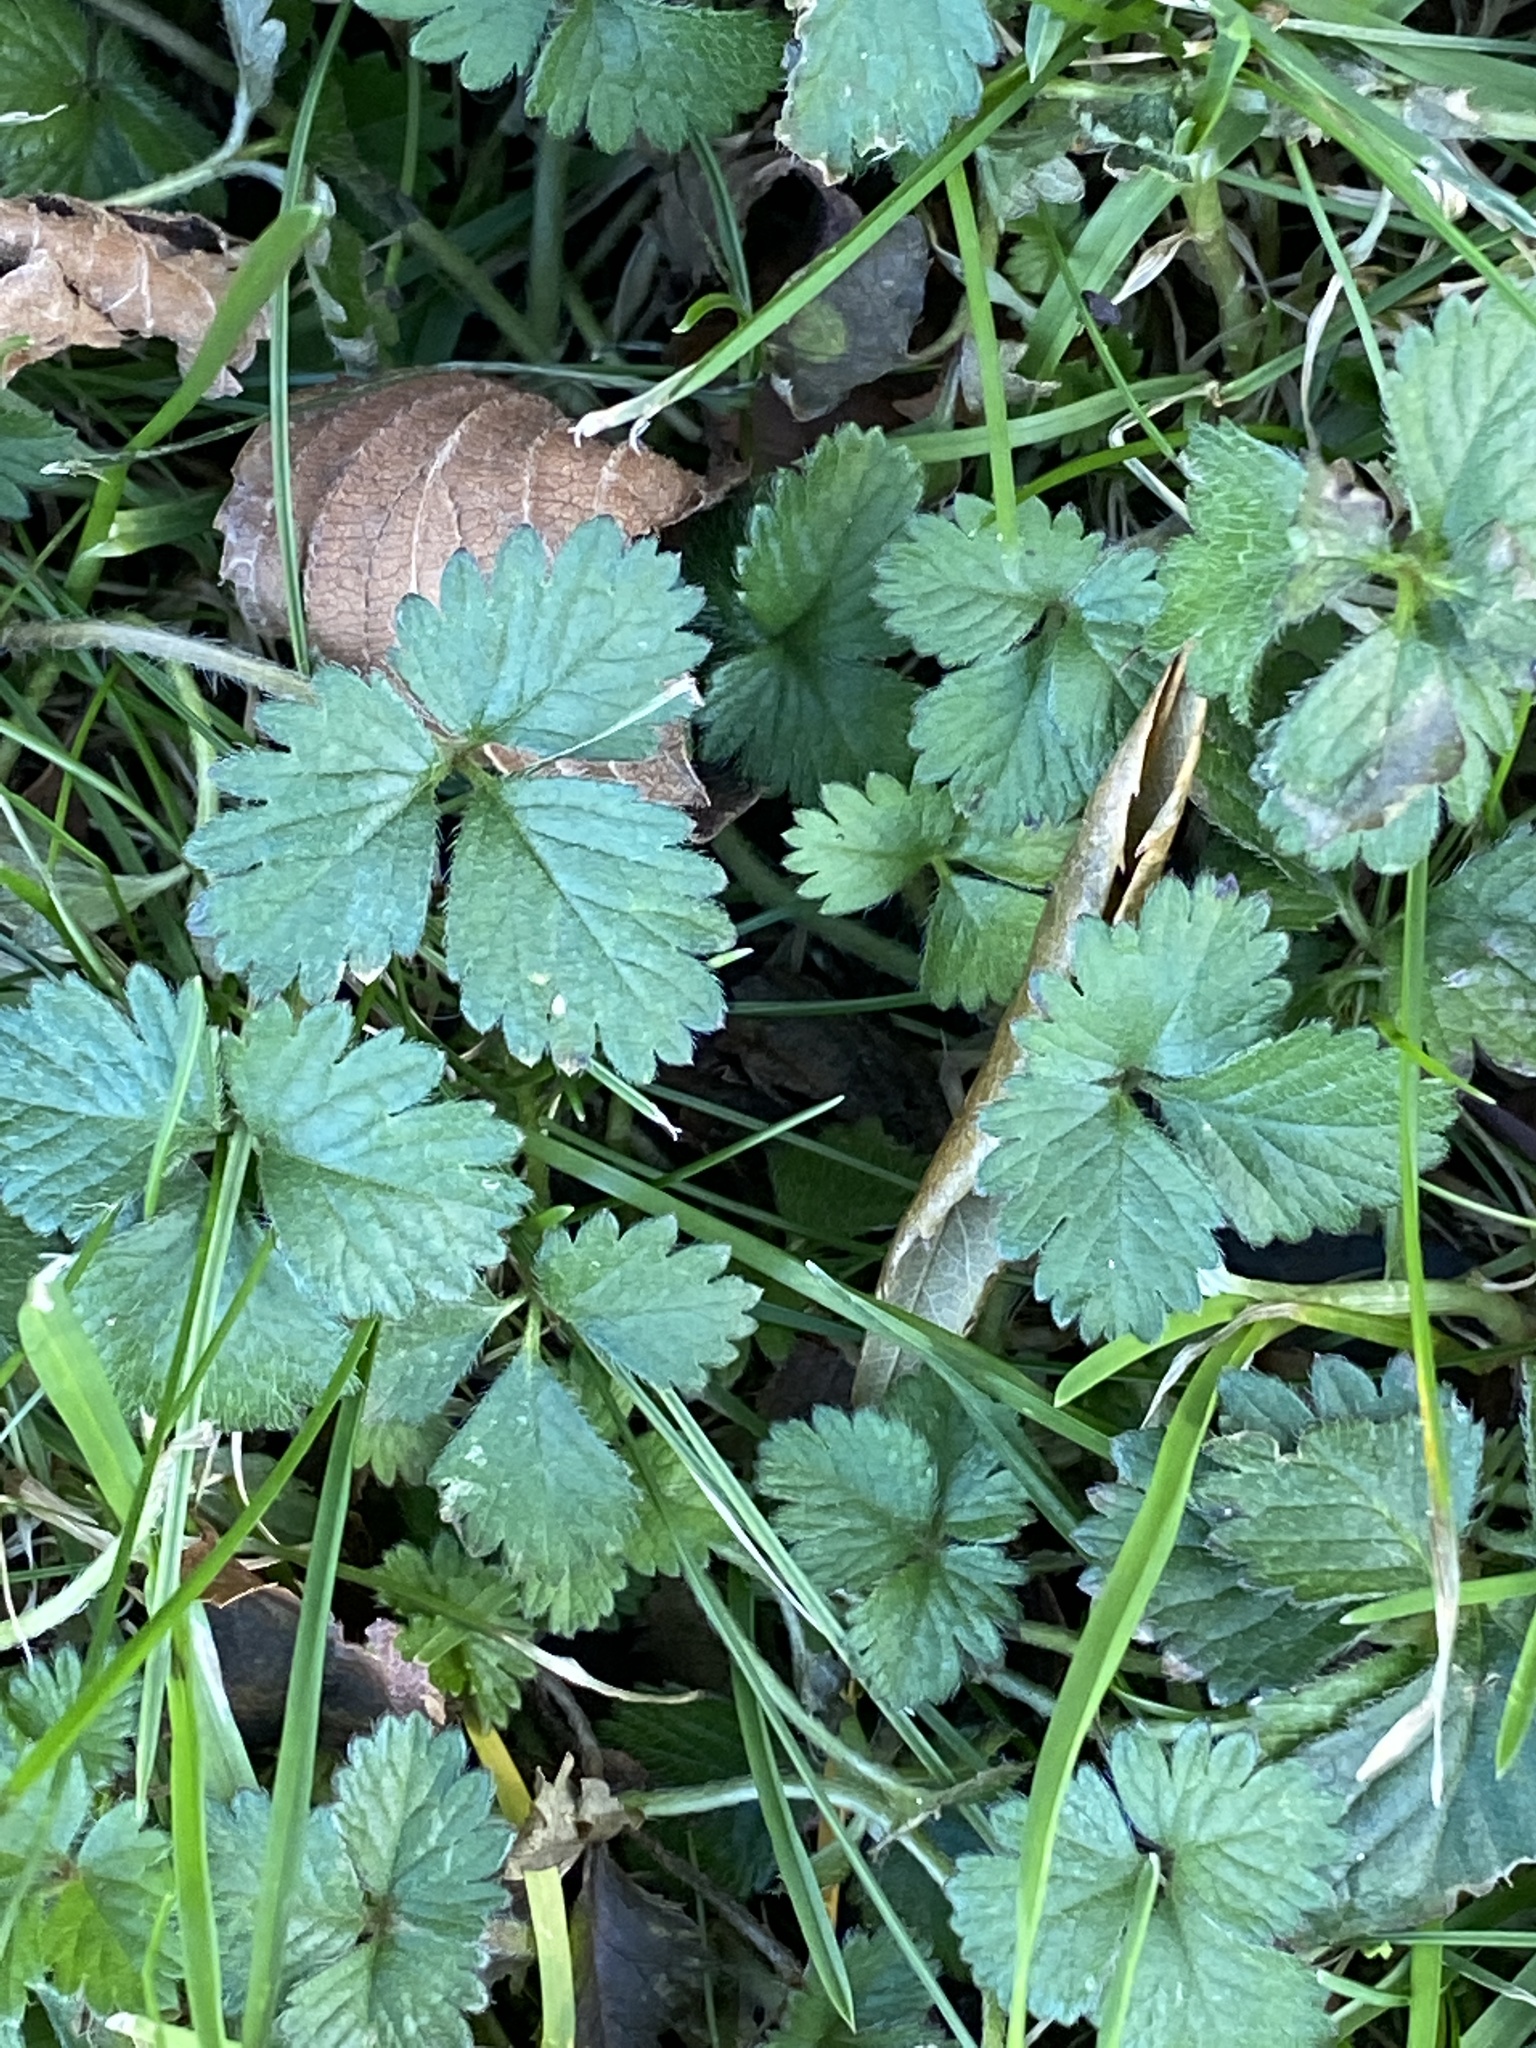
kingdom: Plantae
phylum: Tracheophyta
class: Magnoliopsida
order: Rosales
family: Rosaceae
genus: Potentilla
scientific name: Potentilla indica
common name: Yellow-flowered strawberry
